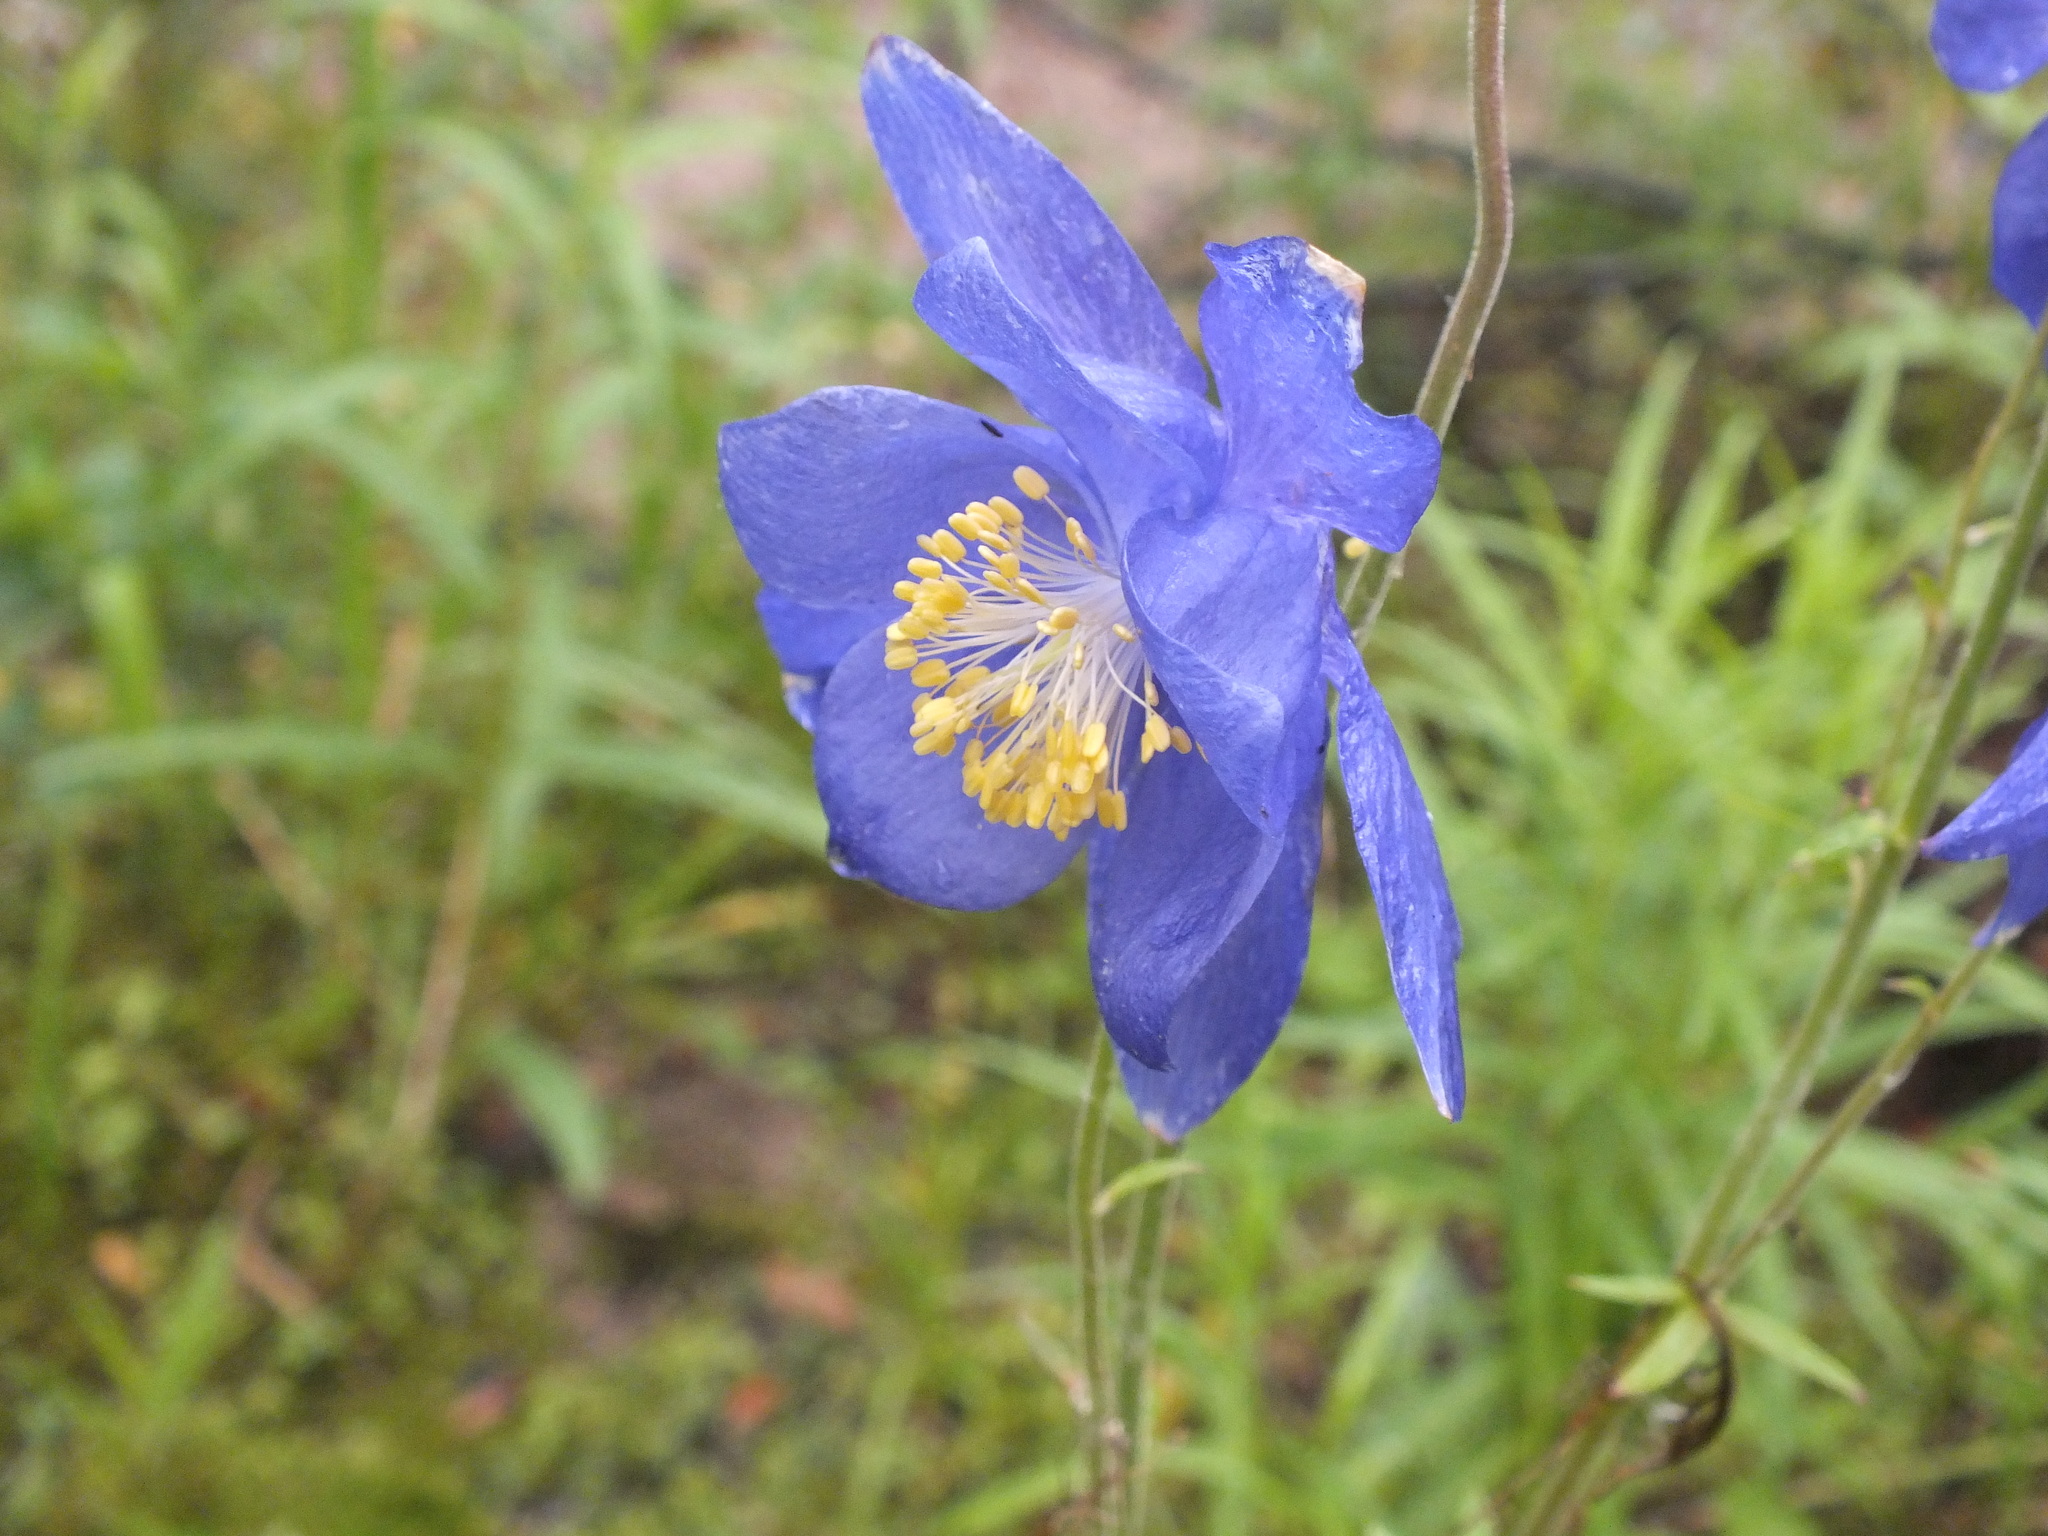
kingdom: Plantae
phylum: Tracheophyta
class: Magnoliopsida
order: Ranunculales
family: Ranunculaceae
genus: Aquilegia
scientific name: Aquilegia glandulosa
